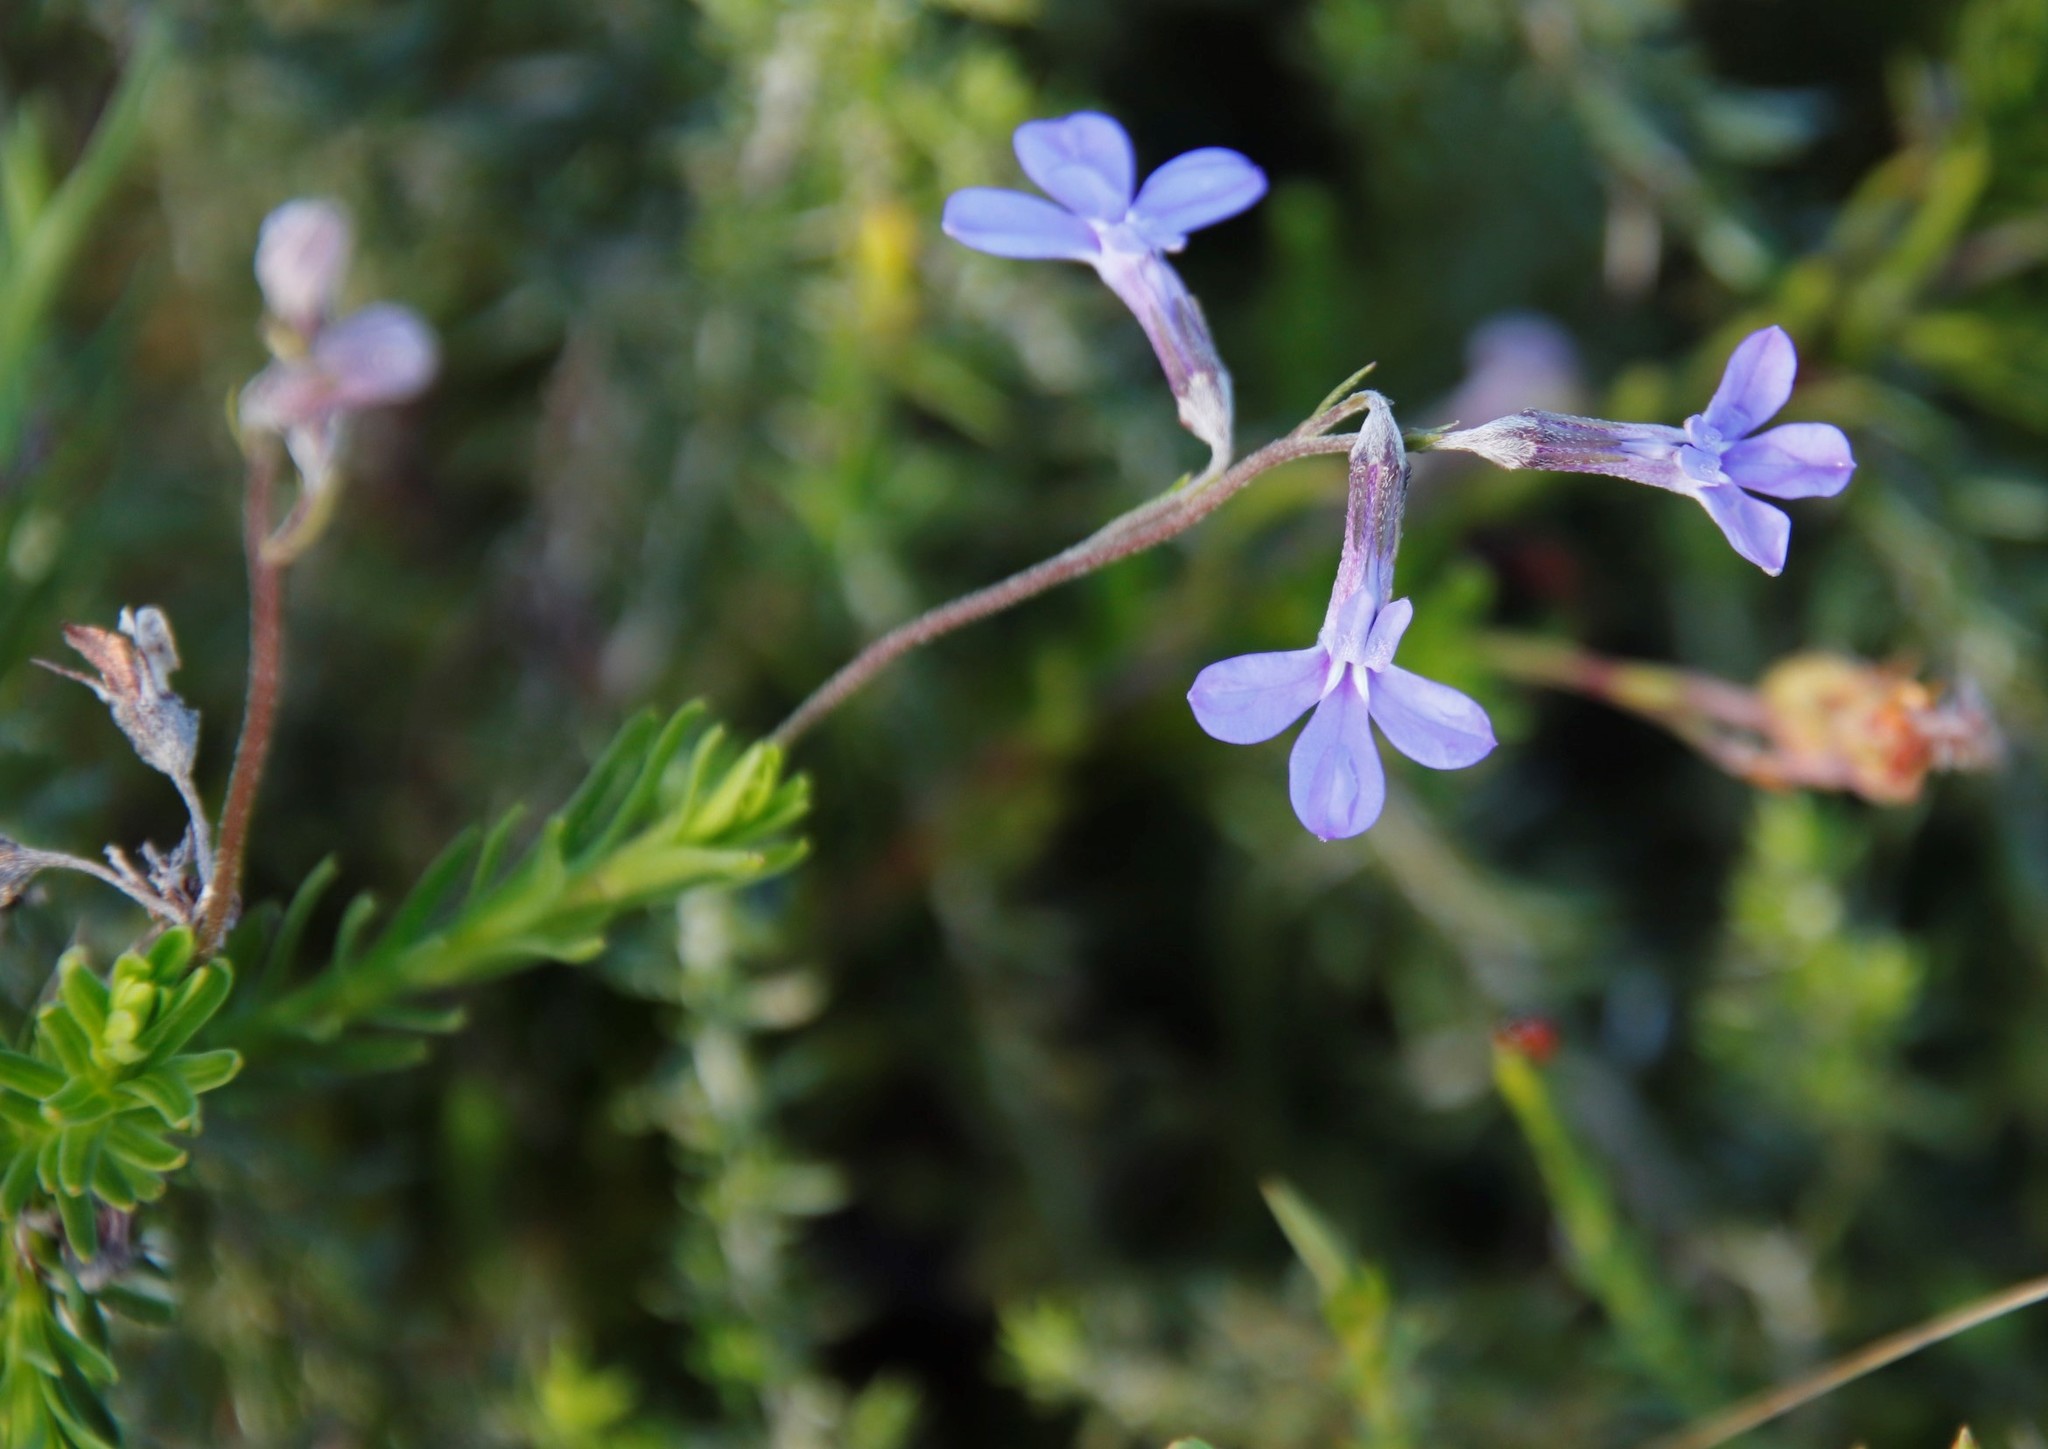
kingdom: Plantae
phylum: Tracheophyta
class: Magnoliopsida
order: Asterales
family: Campanulaceae
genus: Lobelia
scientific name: Lobelia pinifolia
